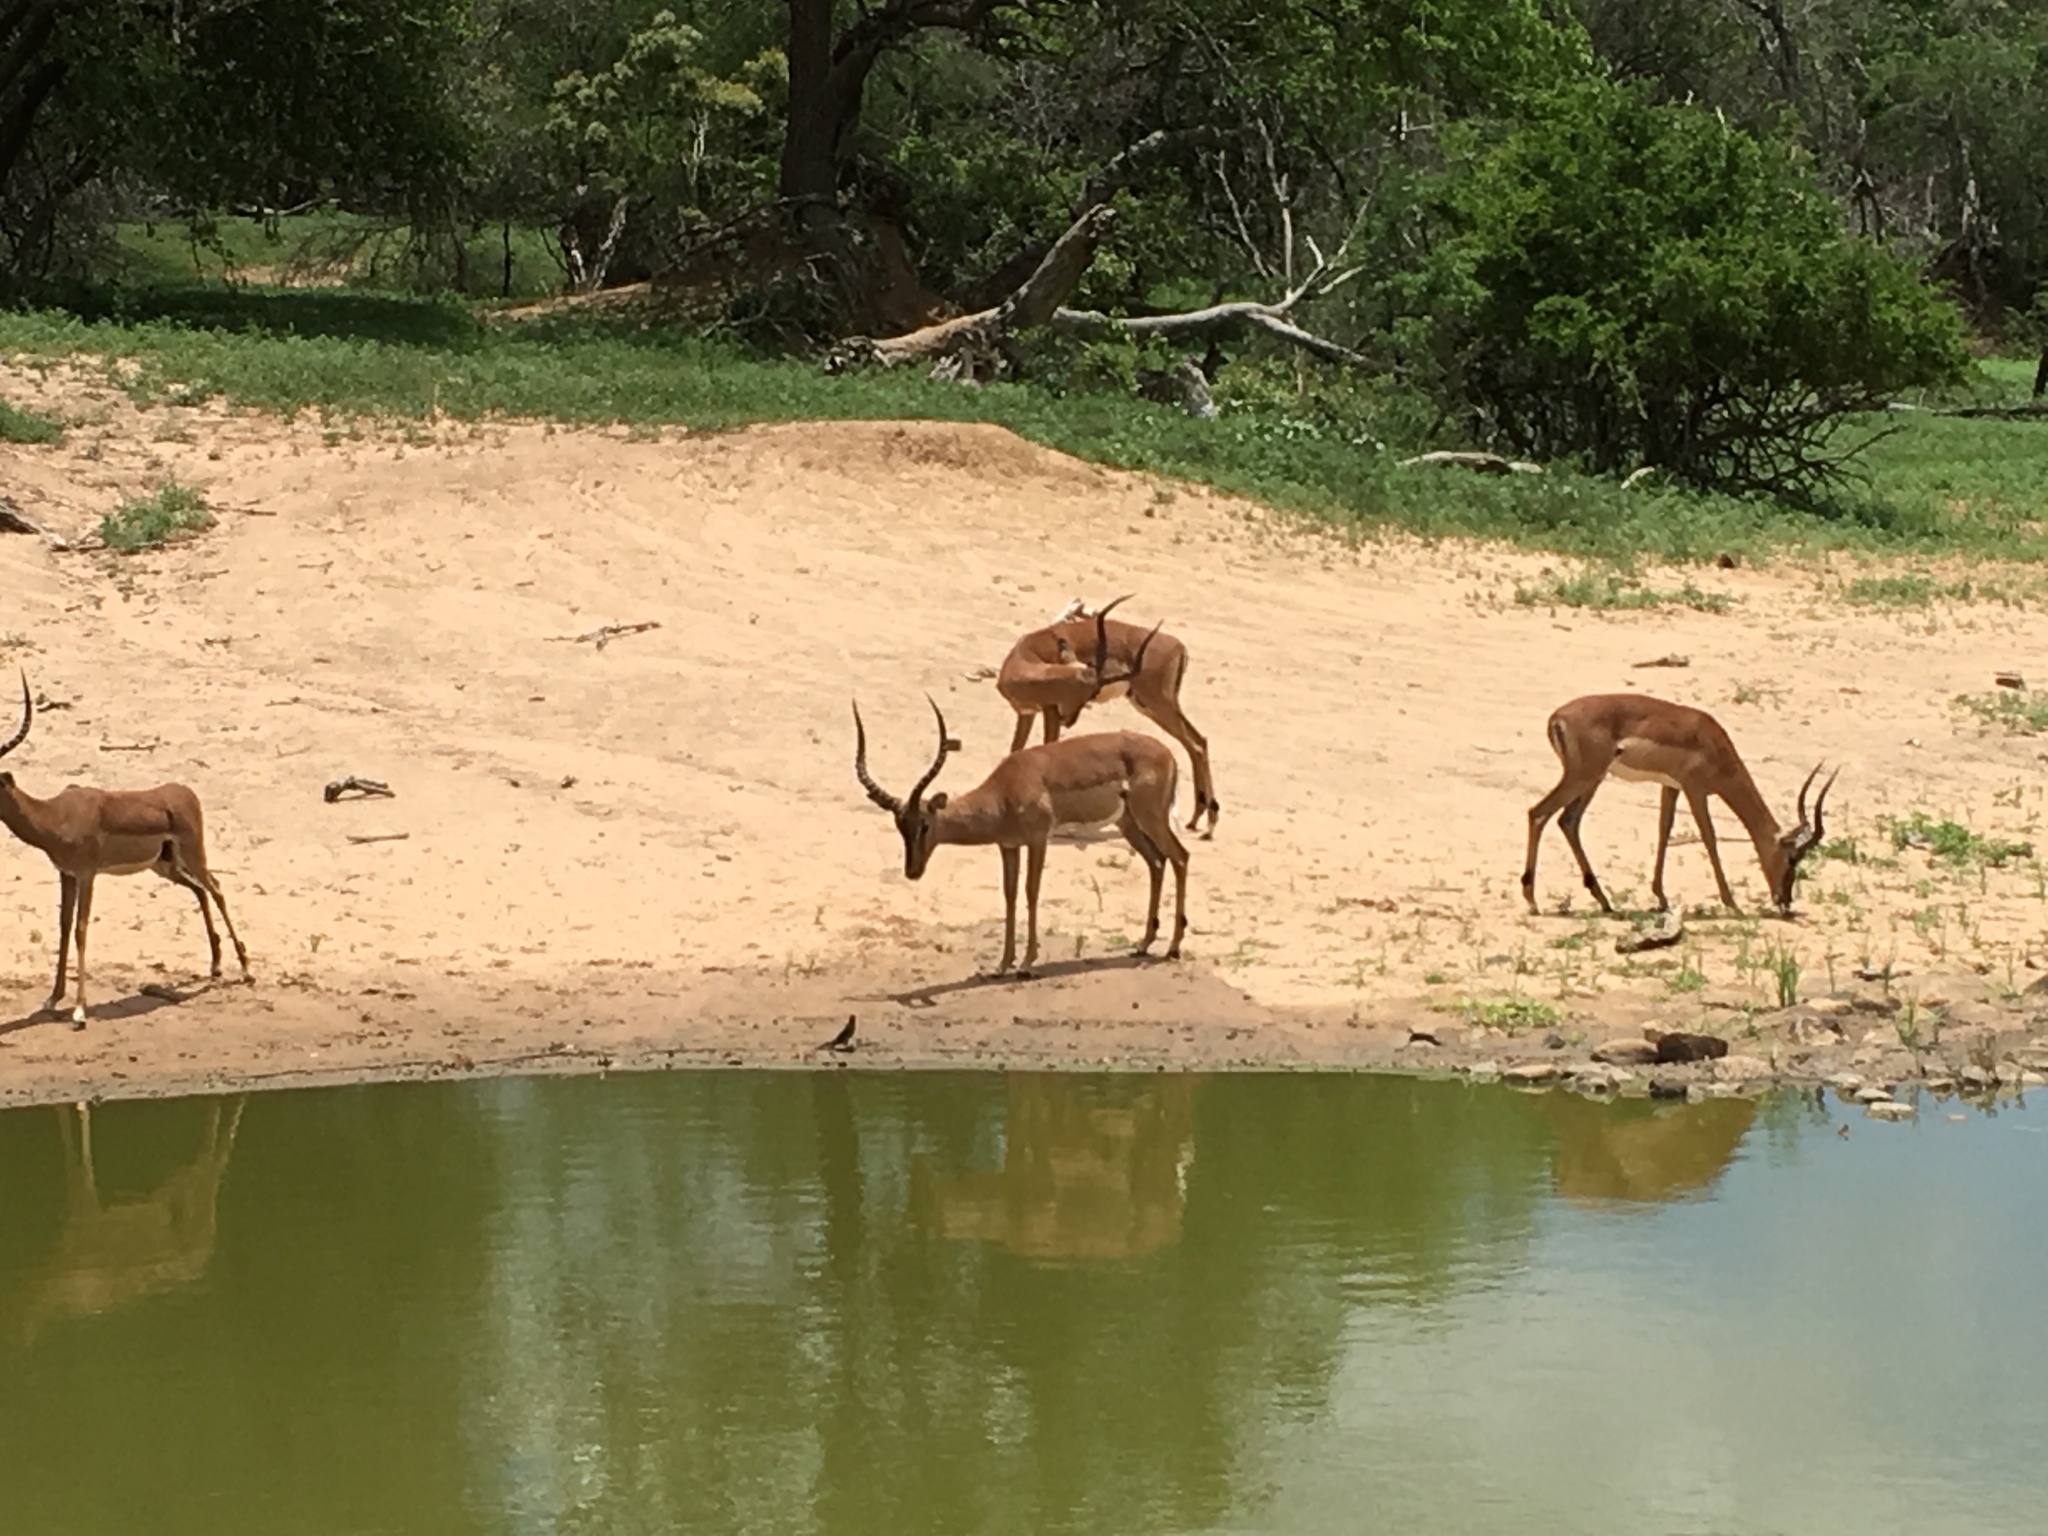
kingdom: Animalia
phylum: Chordata
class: Mammalia
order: Artiodactyla
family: Bovidae
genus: Aepyceros
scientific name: Aepyceros melampus
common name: Impala
